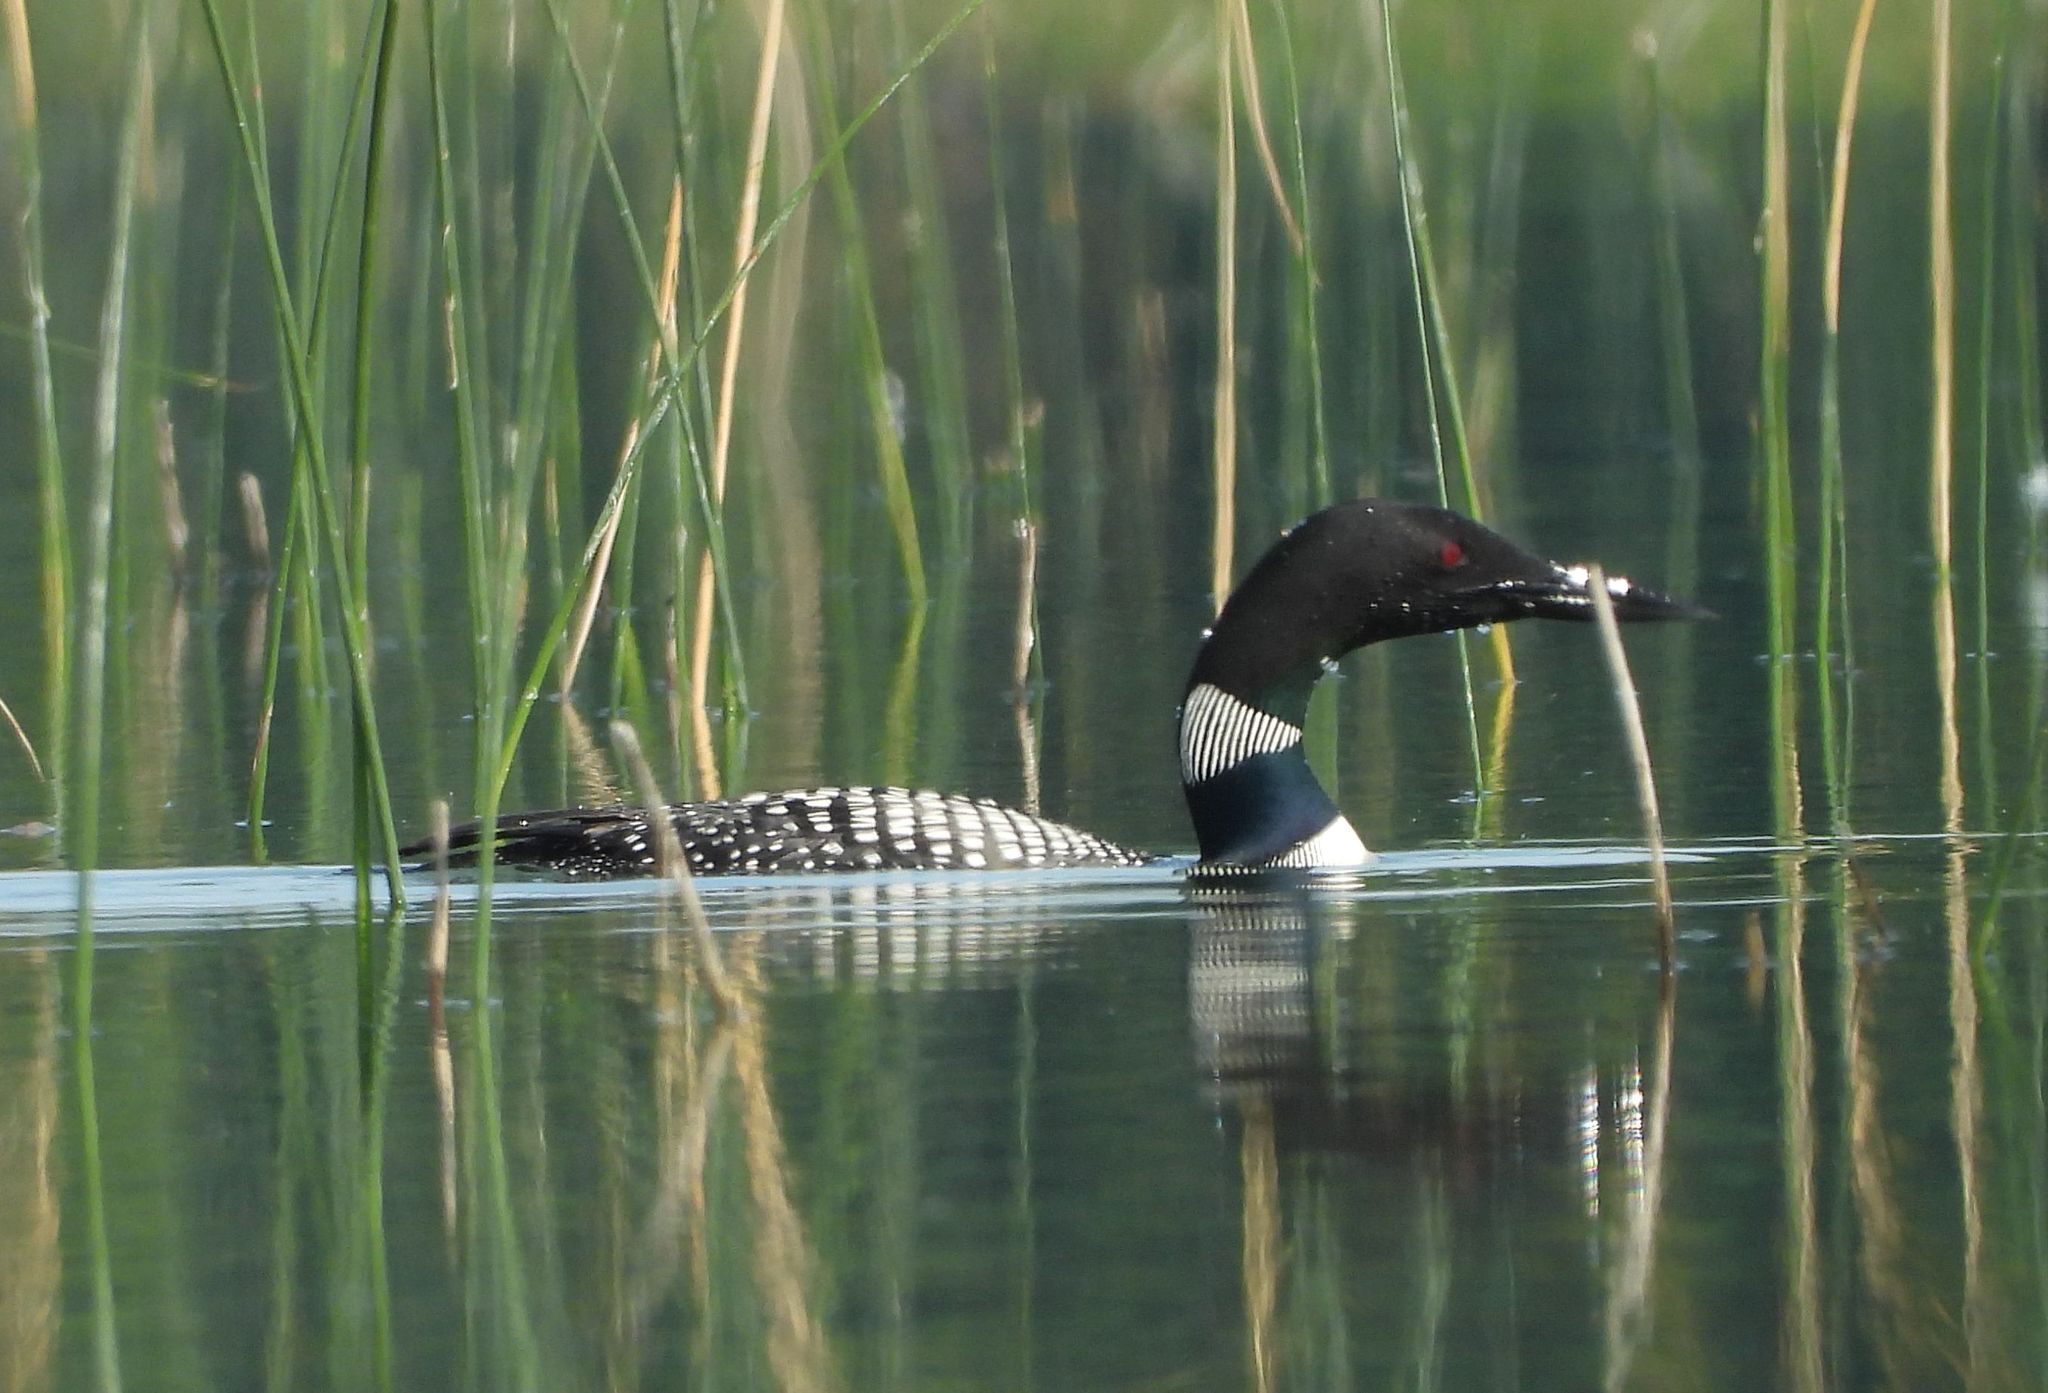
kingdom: Animalia
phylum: Chordata
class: Aves
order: Gaviiformes
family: Gaviidae
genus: Gavia
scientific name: Gavia immer
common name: Common loon
